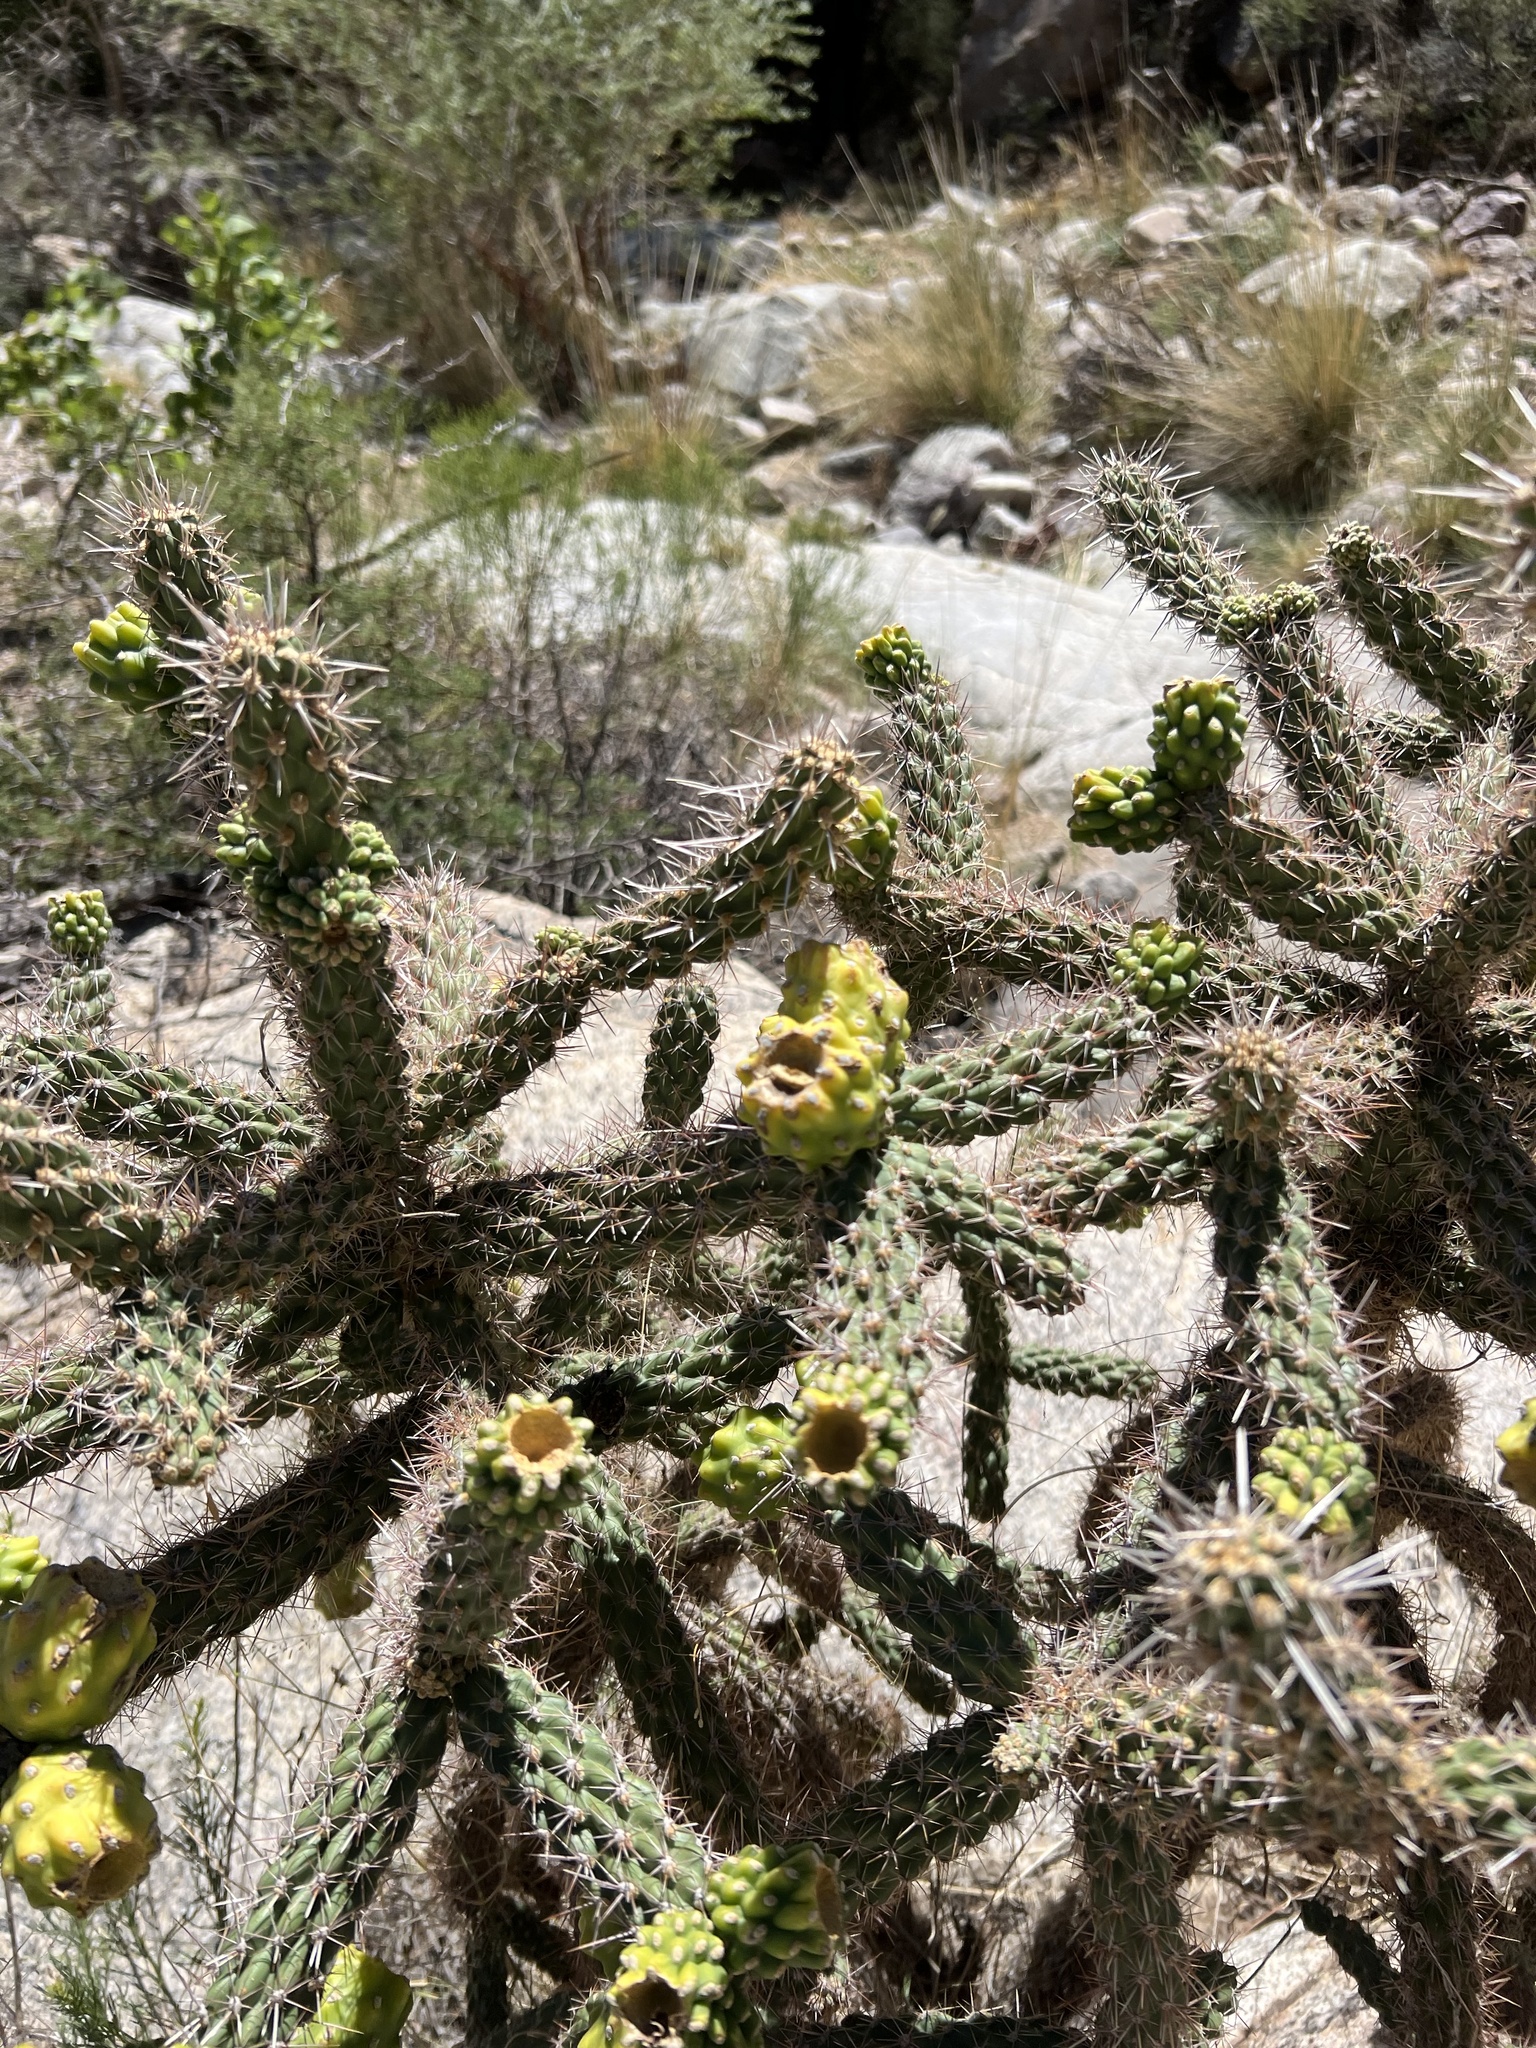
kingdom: Plantae
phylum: Tracheophyta
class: Magnoliopsida
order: Caryophyllales
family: Cactaceae
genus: Cylindropuntia
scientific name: Cylindropuntia imbricata
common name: Candelabrum cactus
